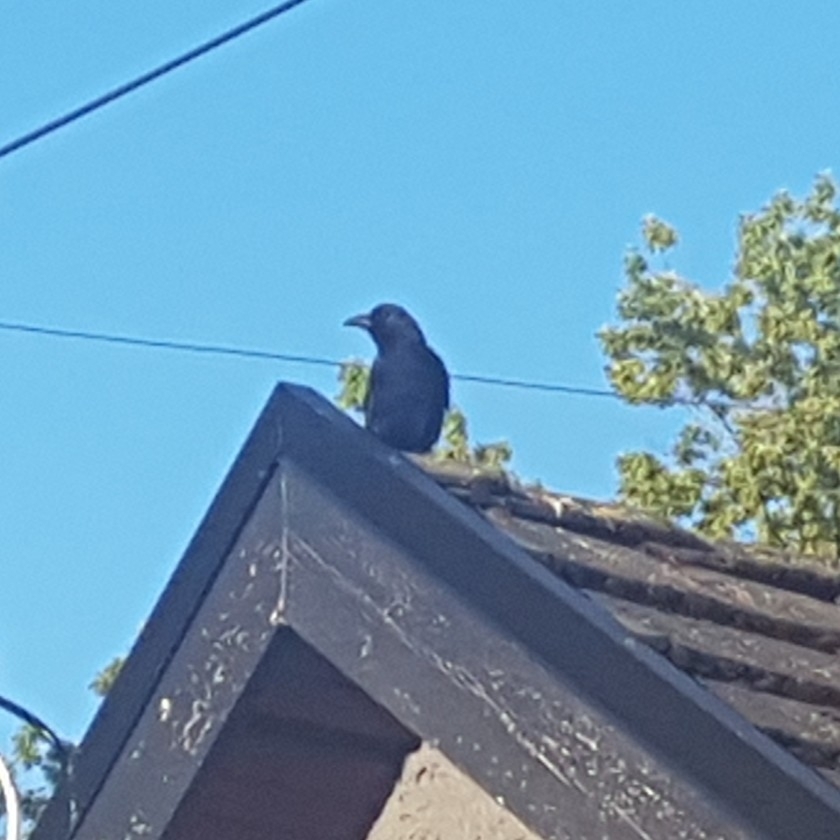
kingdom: Animalia
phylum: Chordata
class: Aves
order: Passeriformes
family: Corvidae
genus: Corvus
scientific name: Corvus brachyrhynchos
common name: American crow
